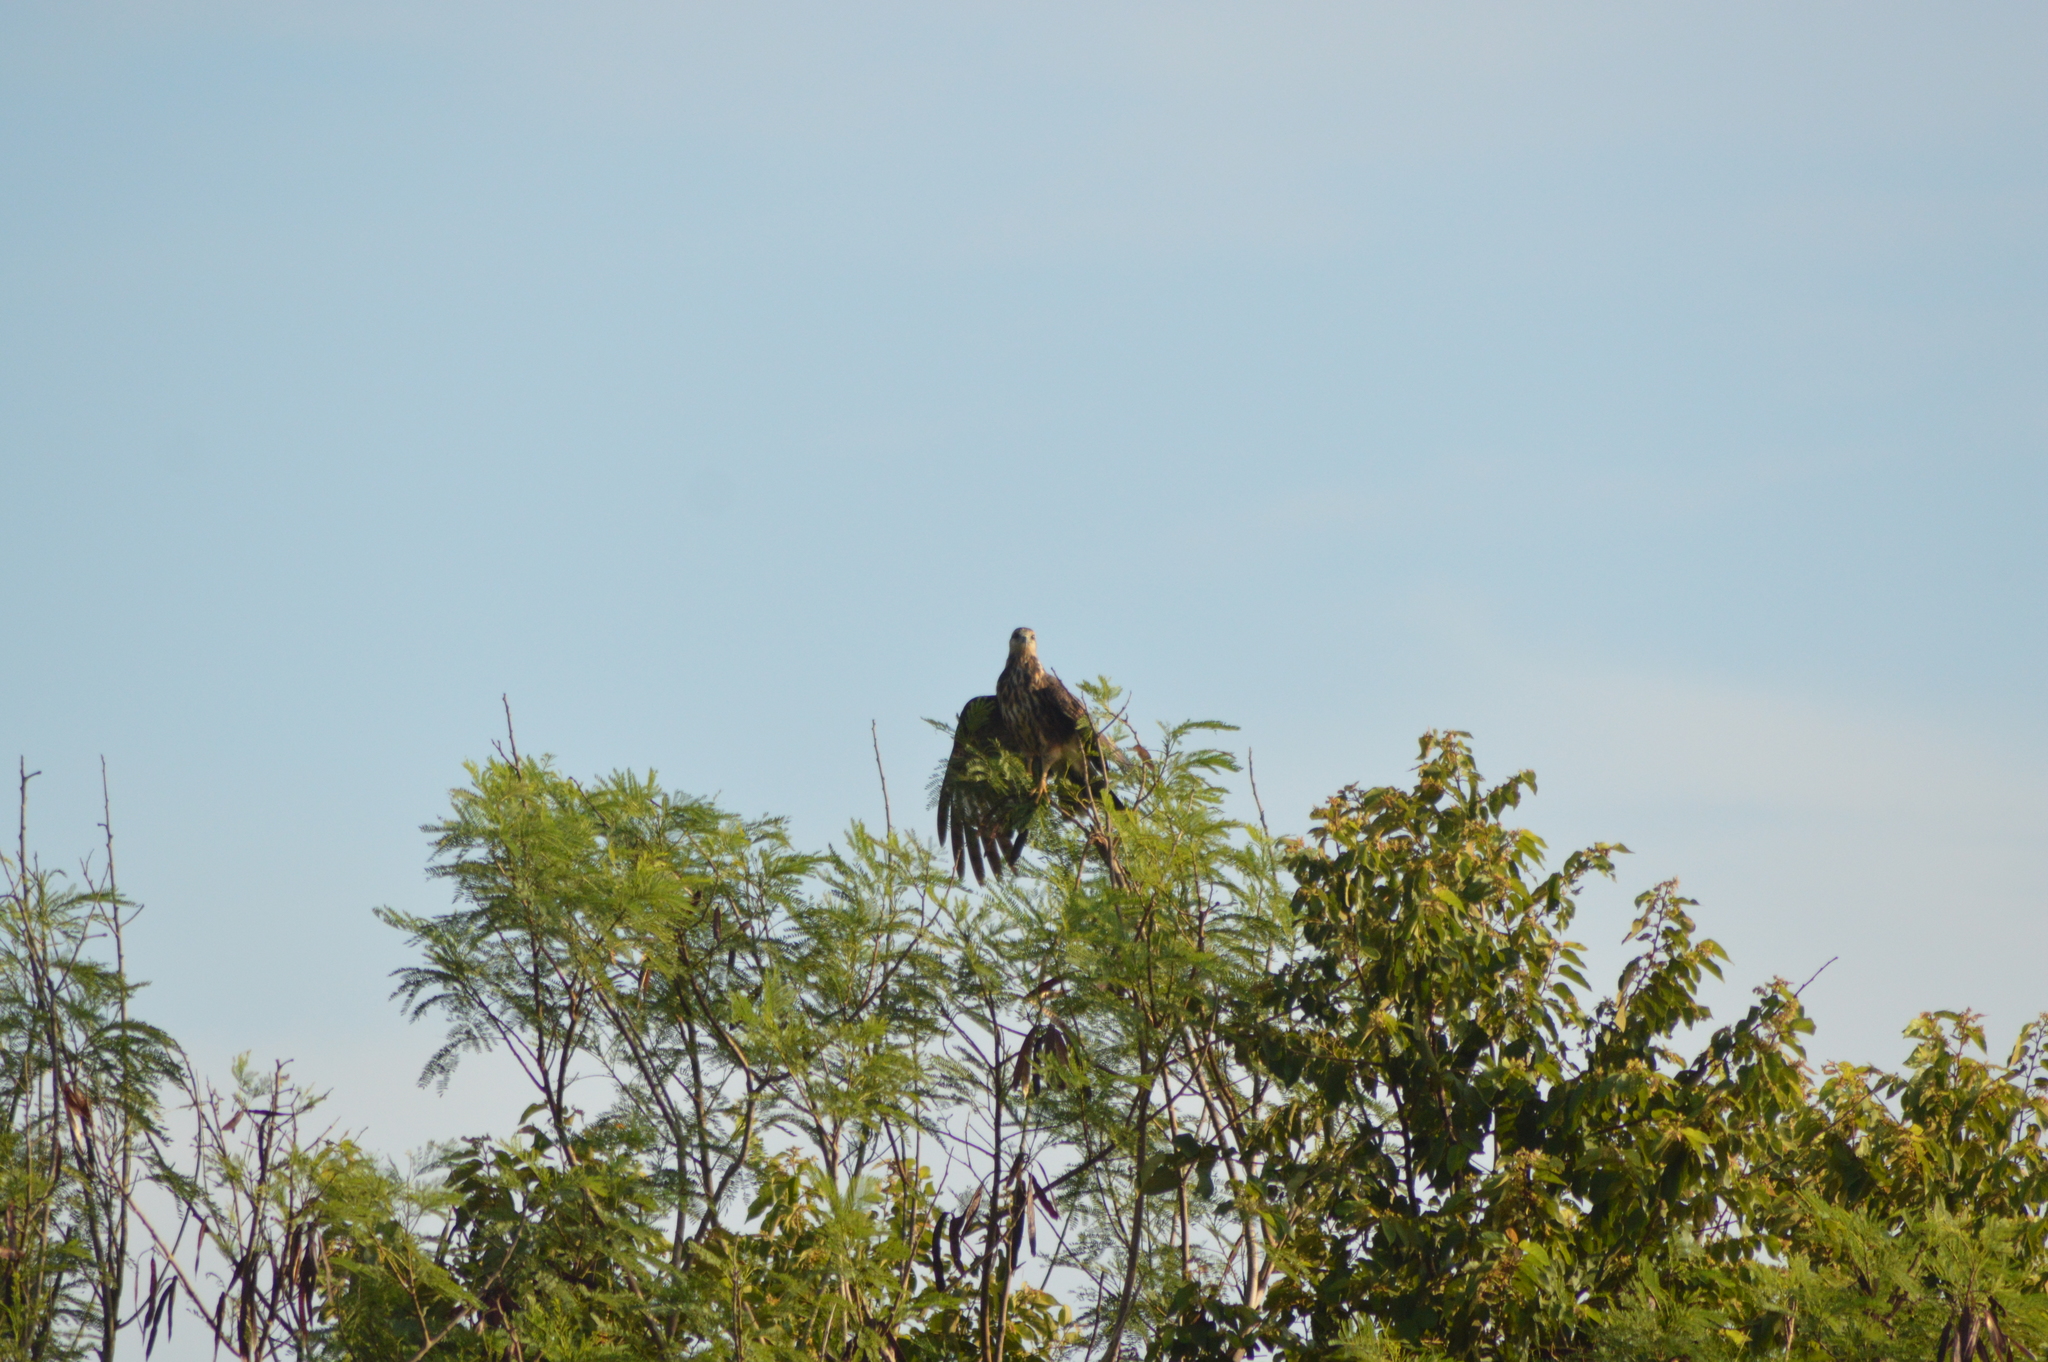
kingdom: Animalia
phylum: Chordata
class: Aves
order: Accipitriformes
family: Accipitridae
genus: Rostrhamus
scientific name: Rostrhamus sociabilis
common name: Snail kite
